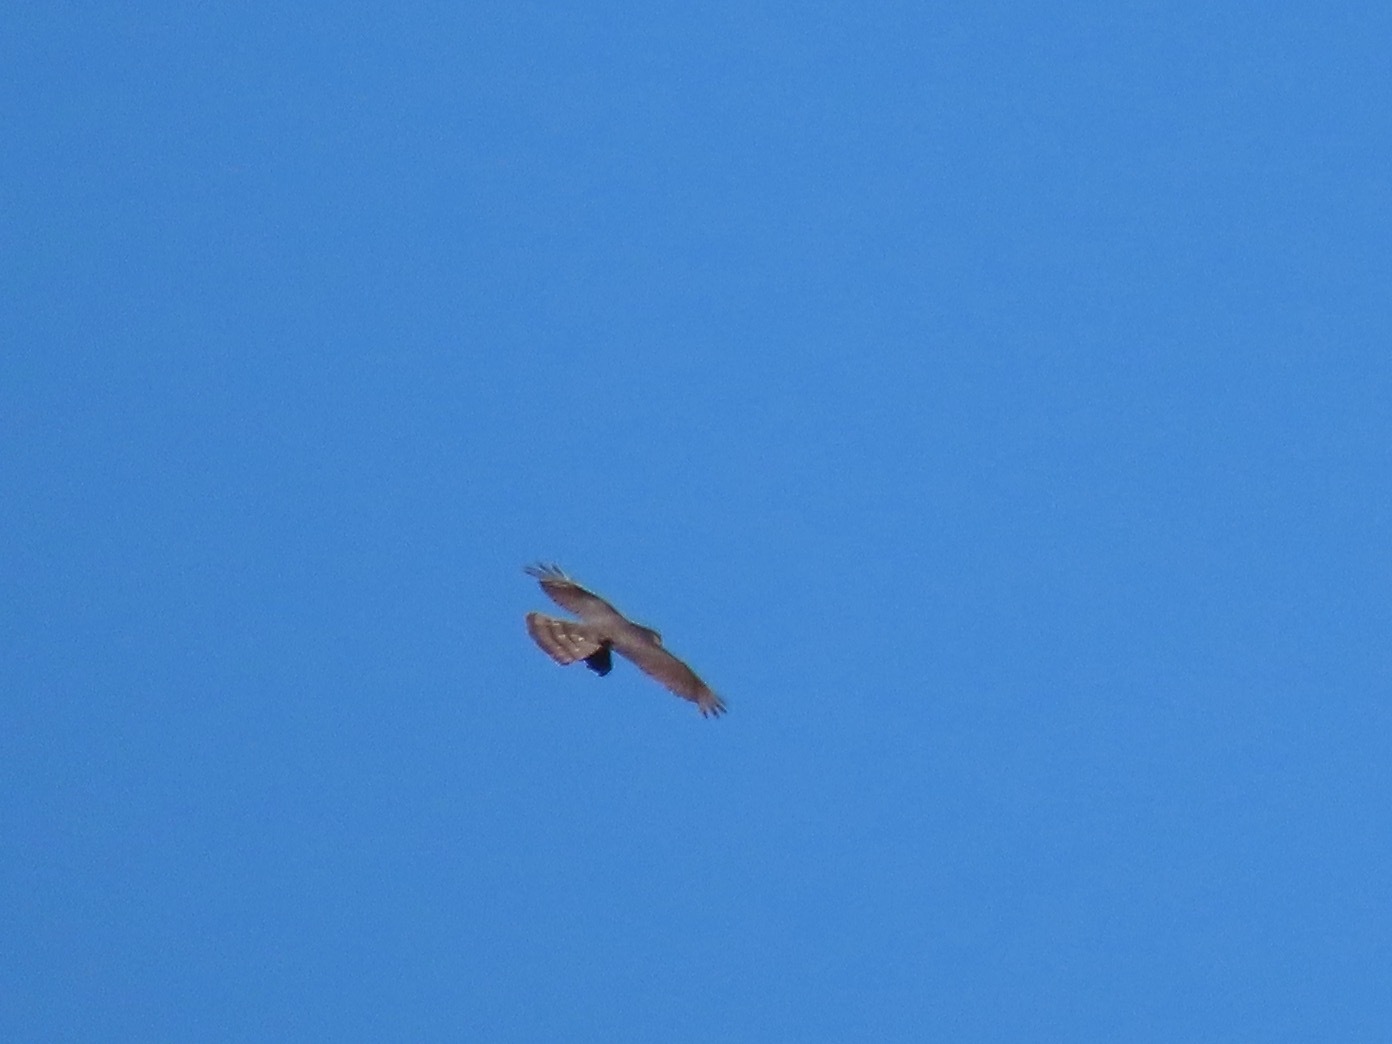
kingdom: Animalia
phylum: Chordata
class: Aves
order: Accipitriformes
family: Accipitridae
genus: Accipiter
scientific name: Accipiter cooperii
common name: Cooper's hawk
